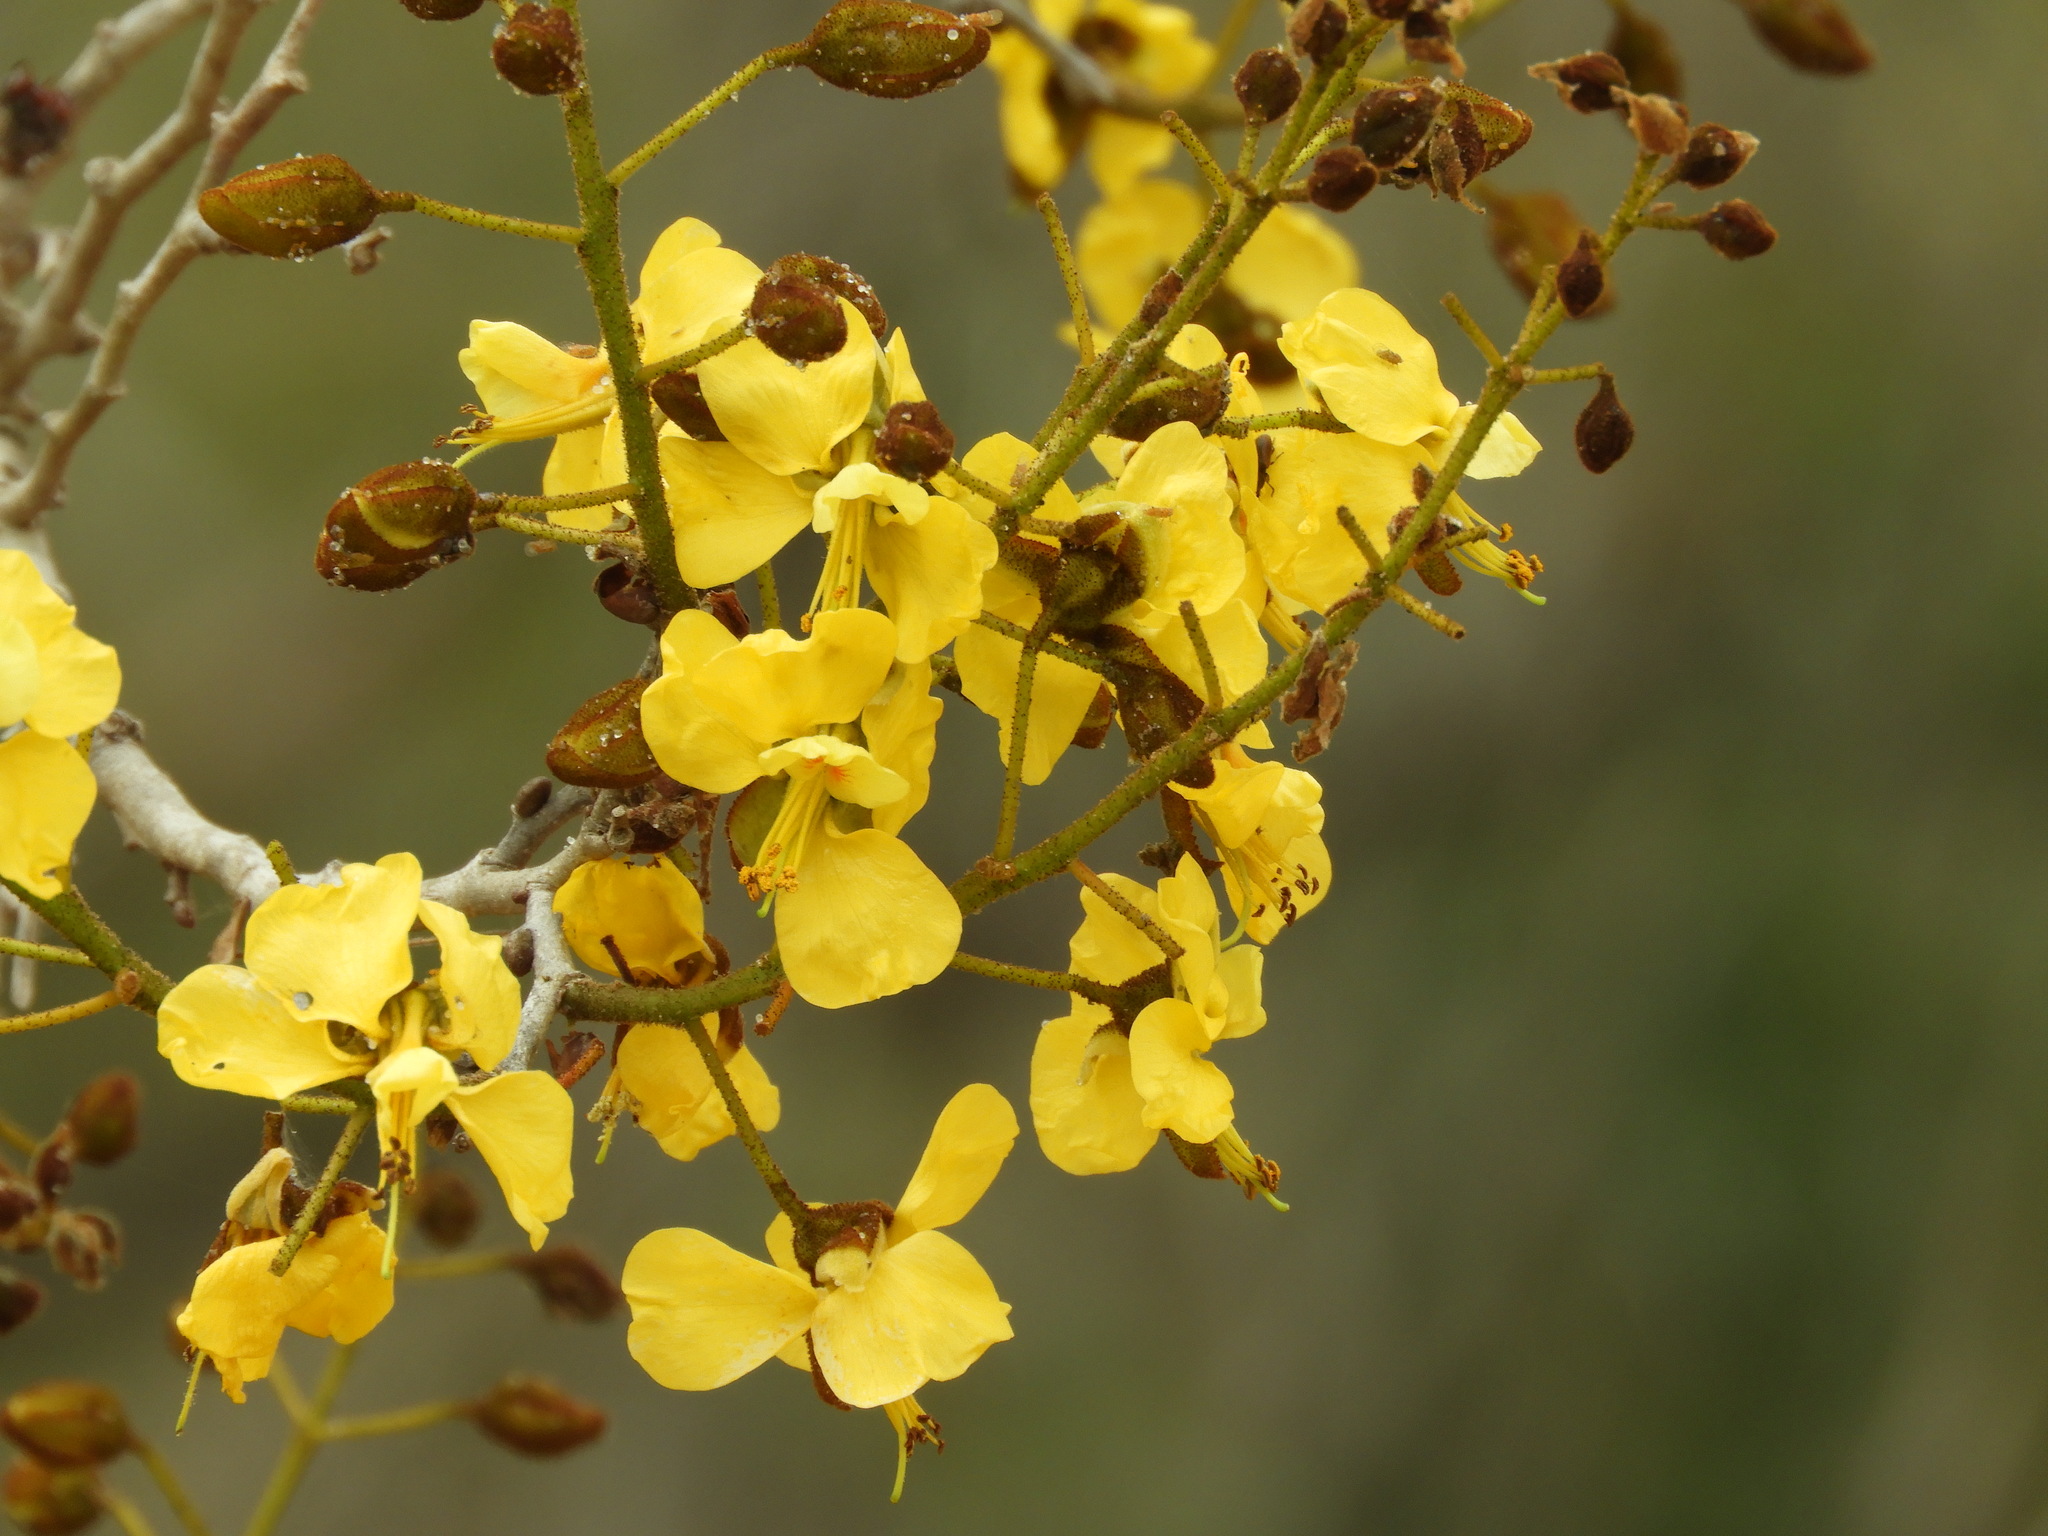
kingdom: Plantae
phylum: Tracheophyta
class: Magnoliopsida
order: Fabales
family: Fabaceae
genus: Cenostigma
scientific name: Cenostigma eriostachys
